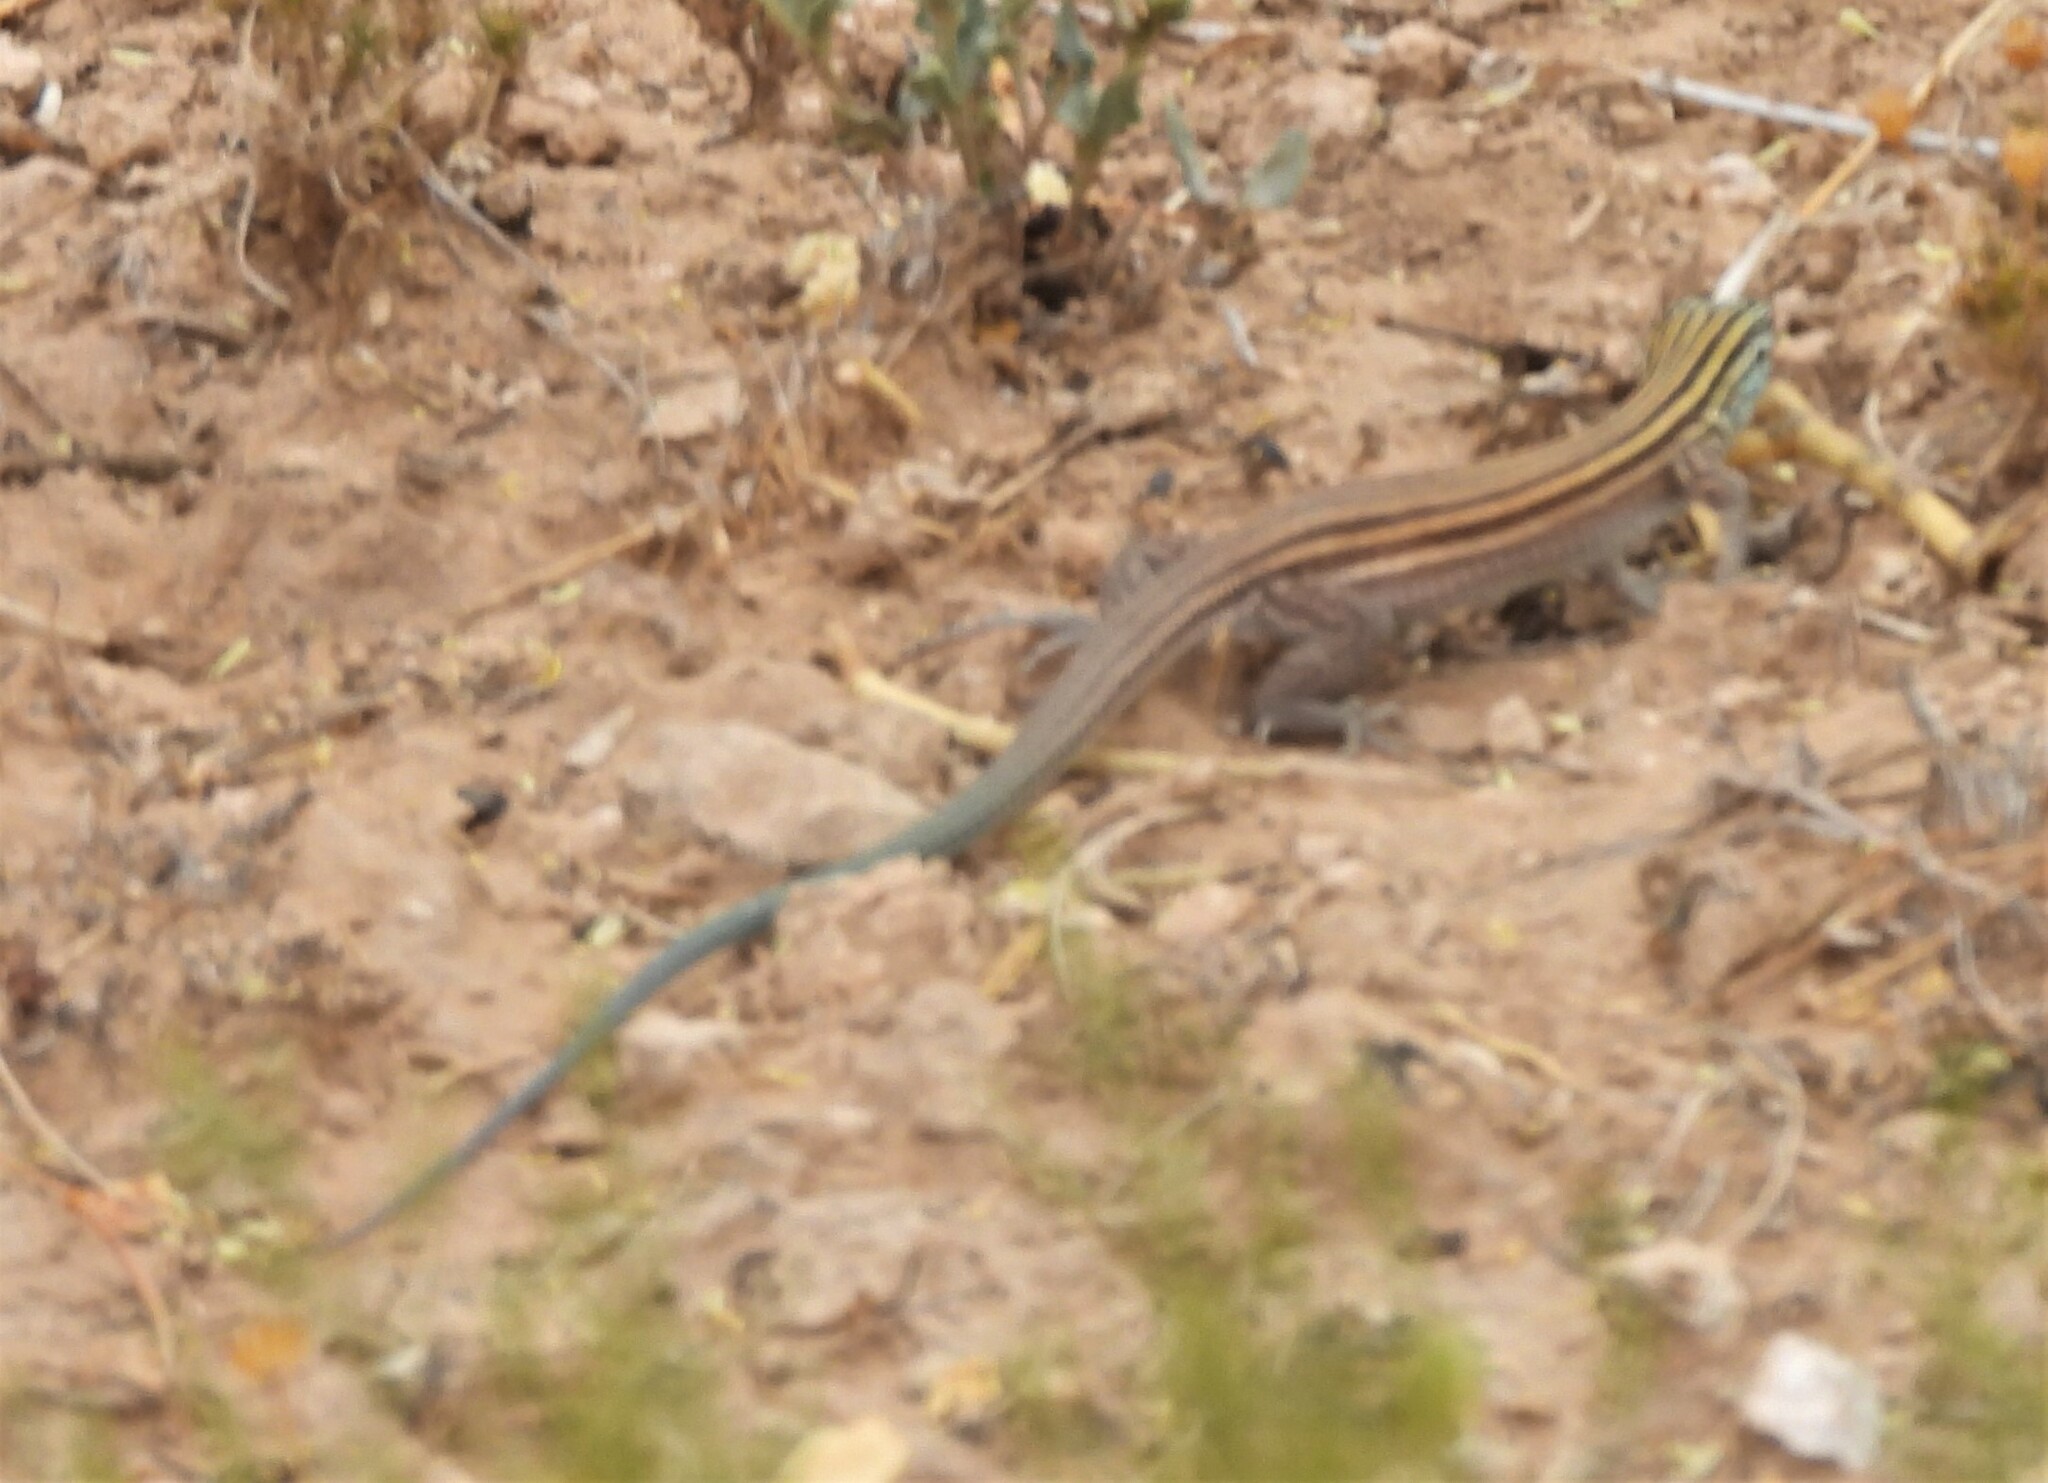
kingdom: Animalia
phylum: Chordata
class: Squamata
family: Teiidae
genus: Aspidoscelis
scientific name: Aspidoscelis inornatus
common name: Little striped whiptail
